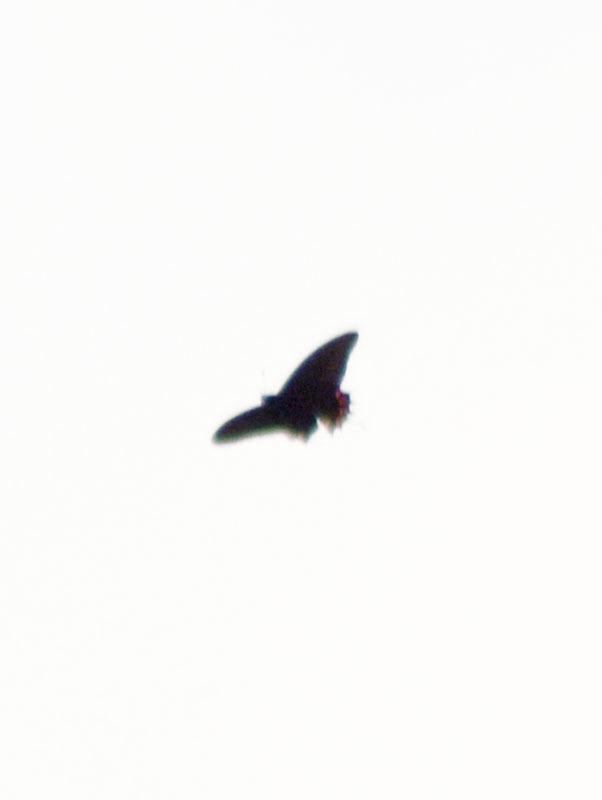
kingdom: Animalia
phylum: Arthropoda
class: Insecta
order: Lepidoptera
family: Papilionidae
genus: Parides
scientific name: Parides montezuma
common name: Montezuma's cattleheart
